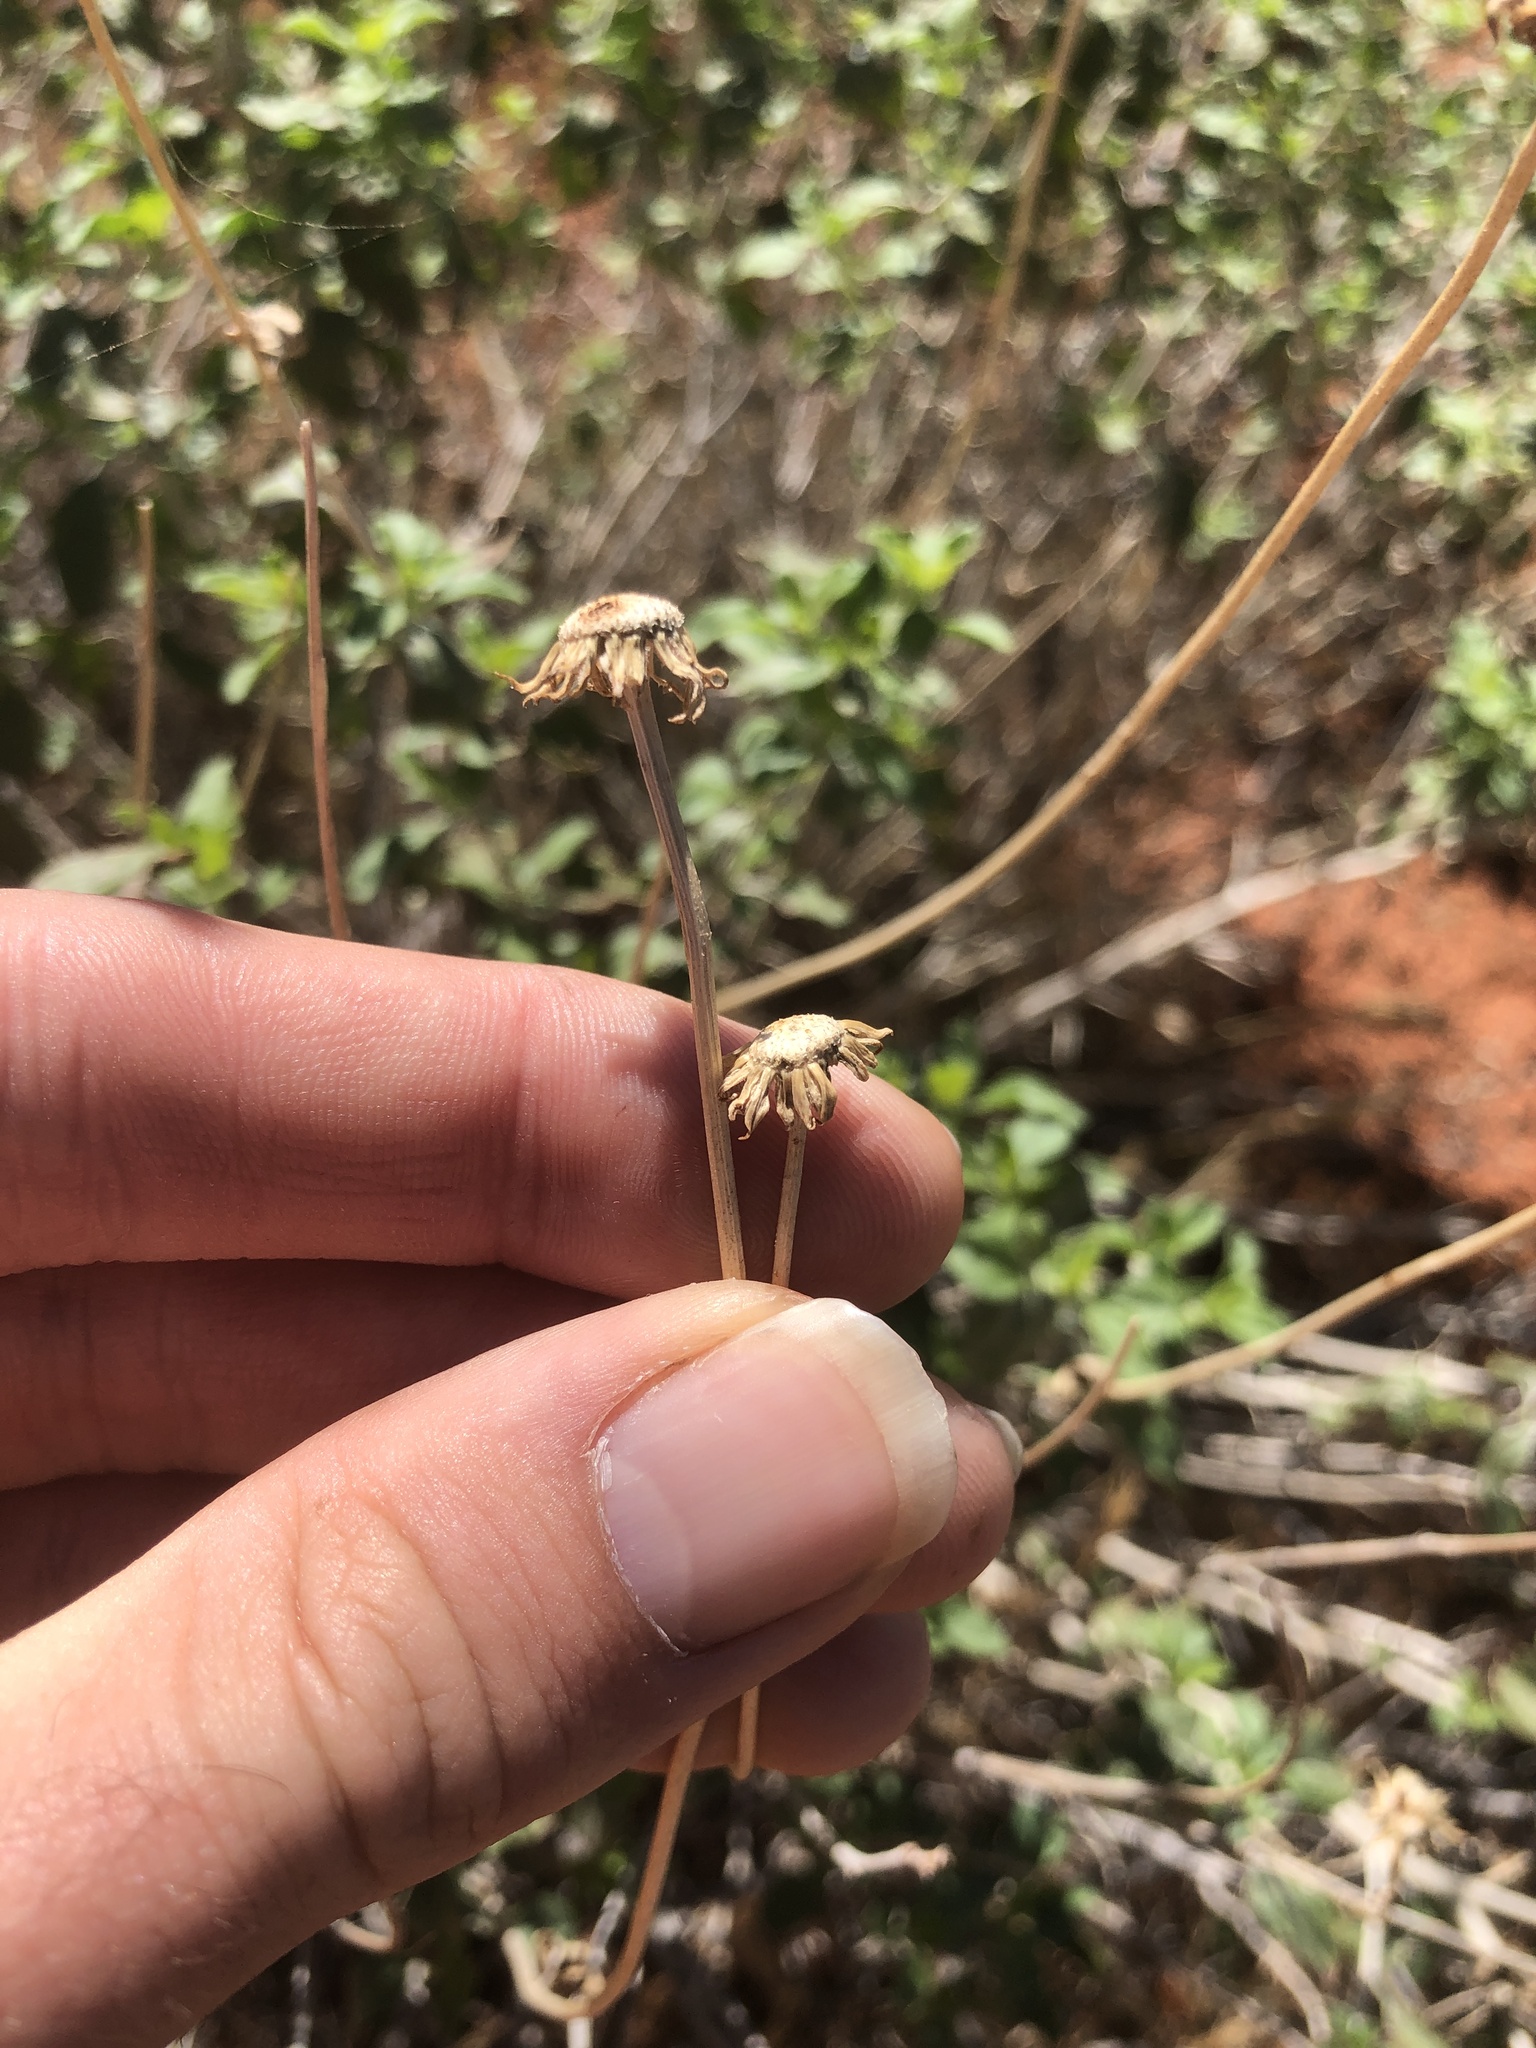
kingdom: Plantae
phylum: Tracheophyta
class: Magnoliopsida
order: Asterales
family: Asteraceae
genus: Encelia
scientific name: Encelia virginensis
